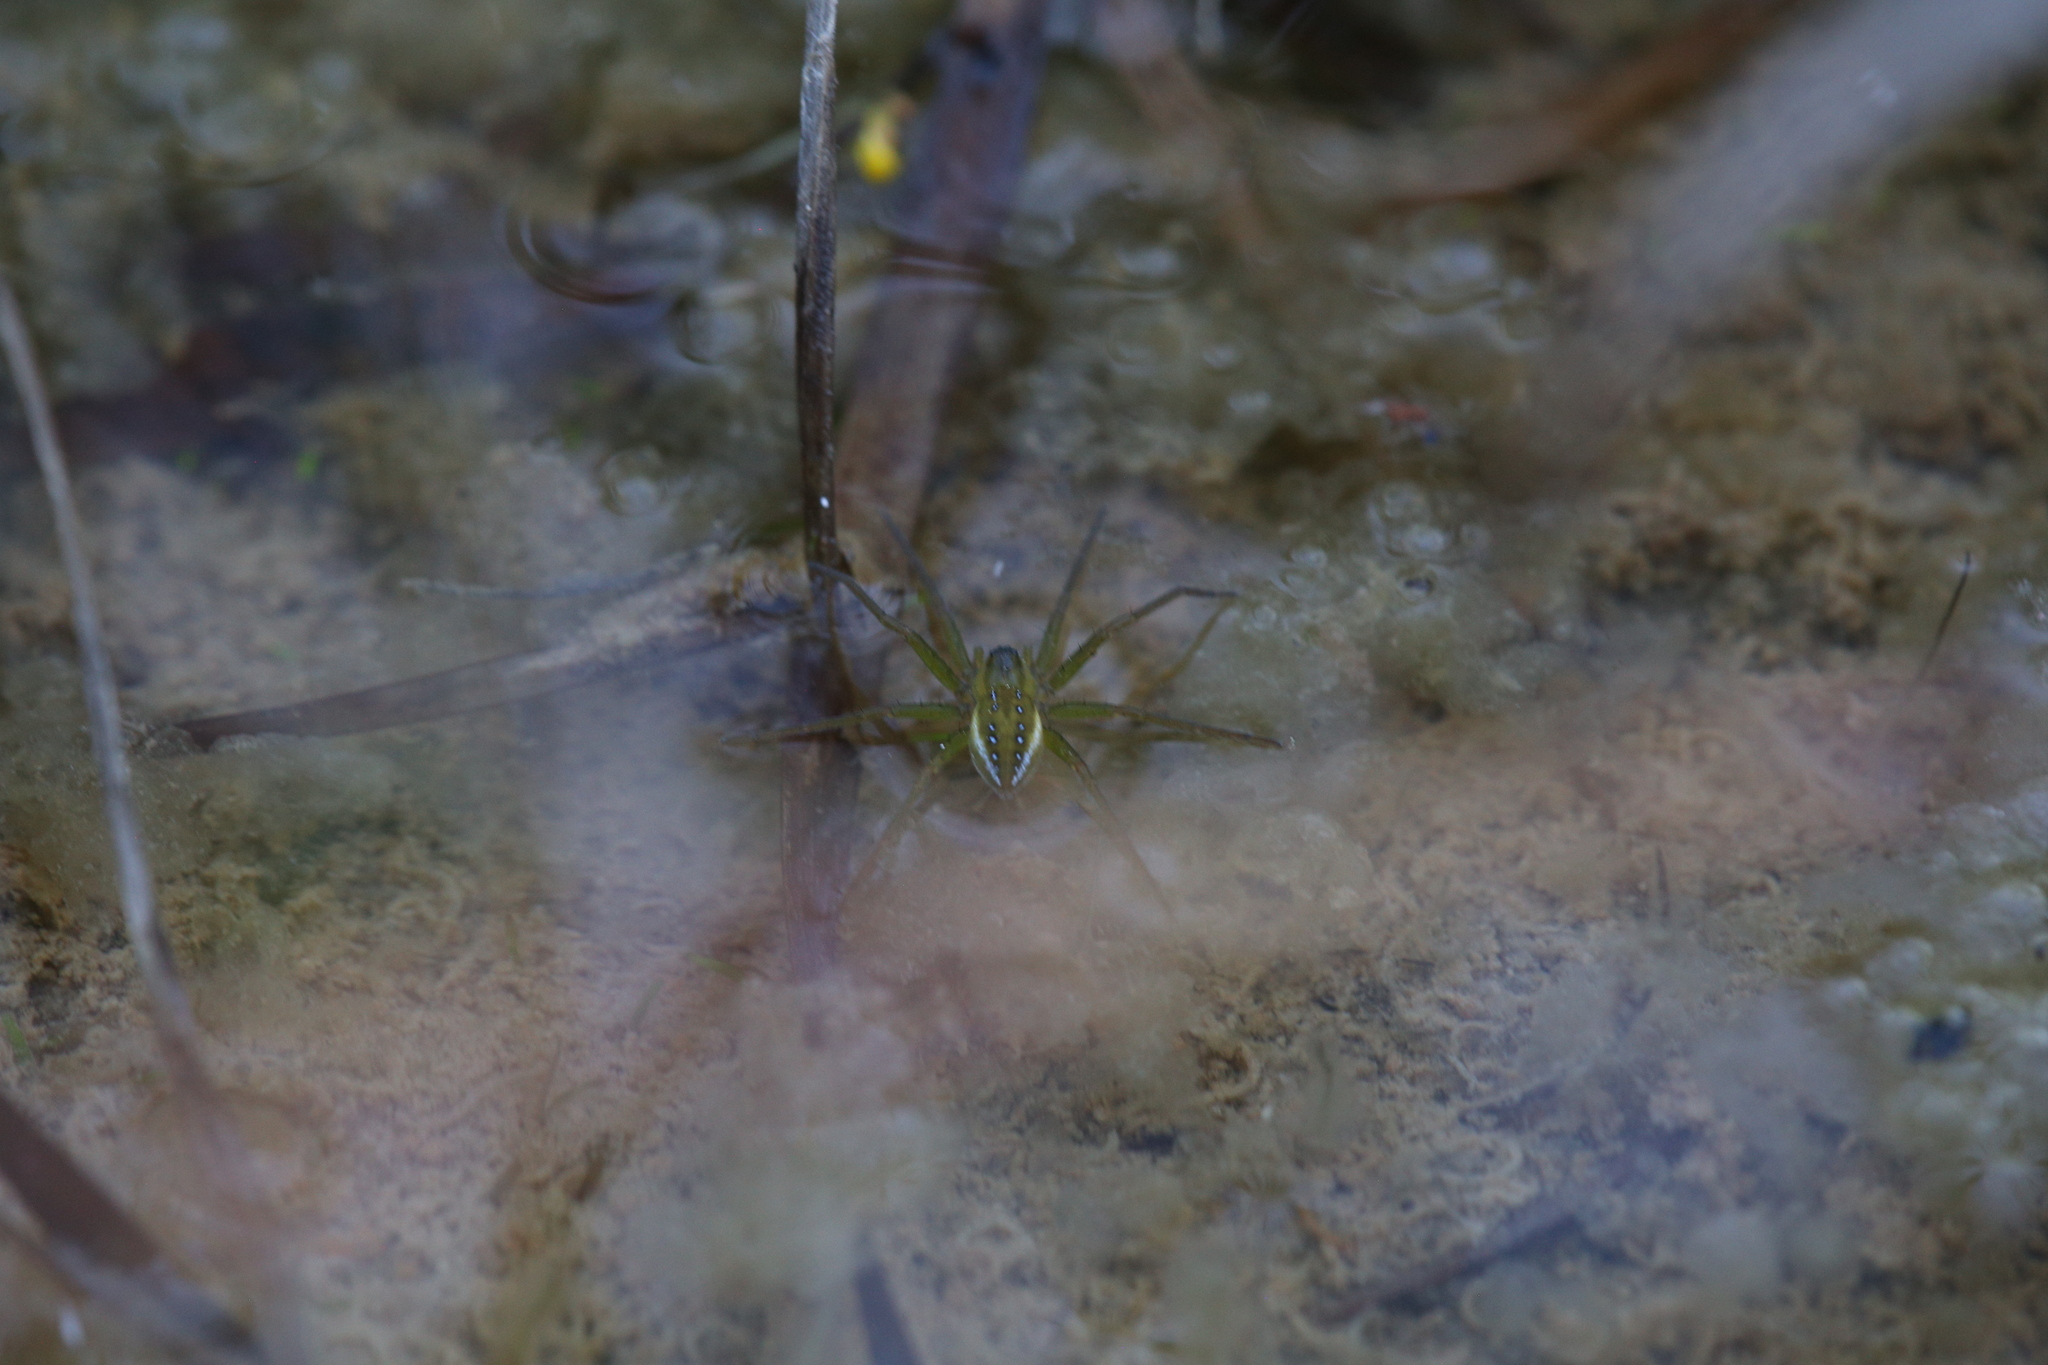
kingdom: Animalia
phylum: Arthropoda
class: Arachnida
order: Araneae
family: Pisauridae
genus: Dolomedes
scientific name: Dolomedes facetus
